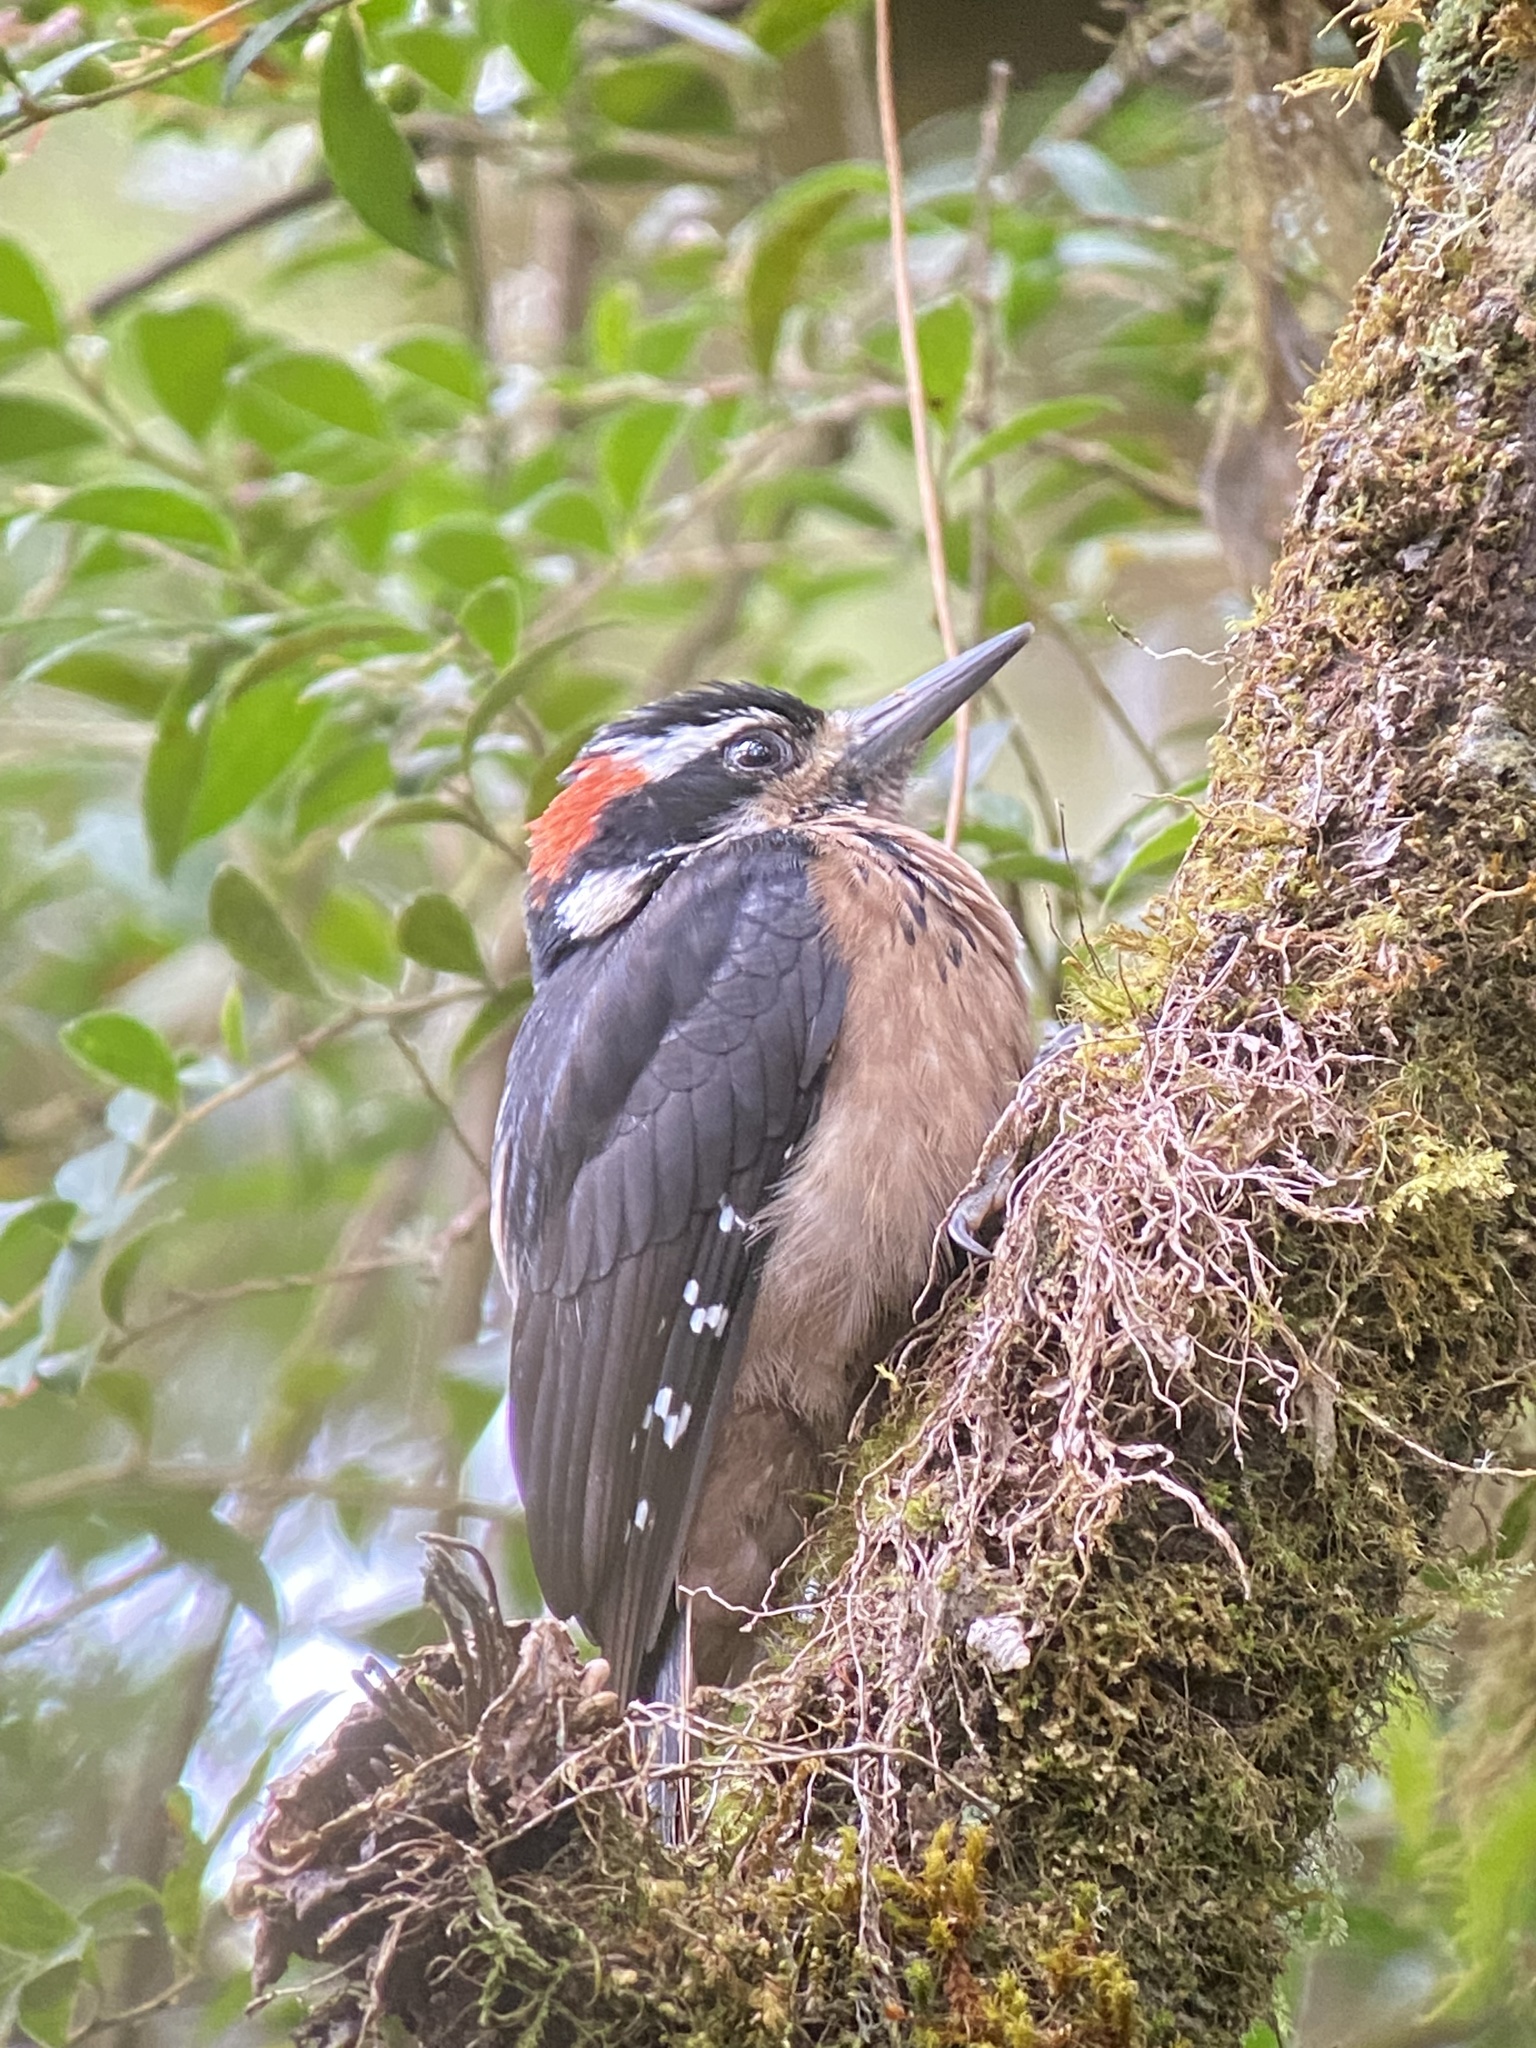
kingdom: Animalia
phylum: Chordata
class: Aves
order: Piciformes
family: Picidae
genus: Leuconotopicus
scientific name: Leuconotopicus villosus
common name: Hairy woodpecker
